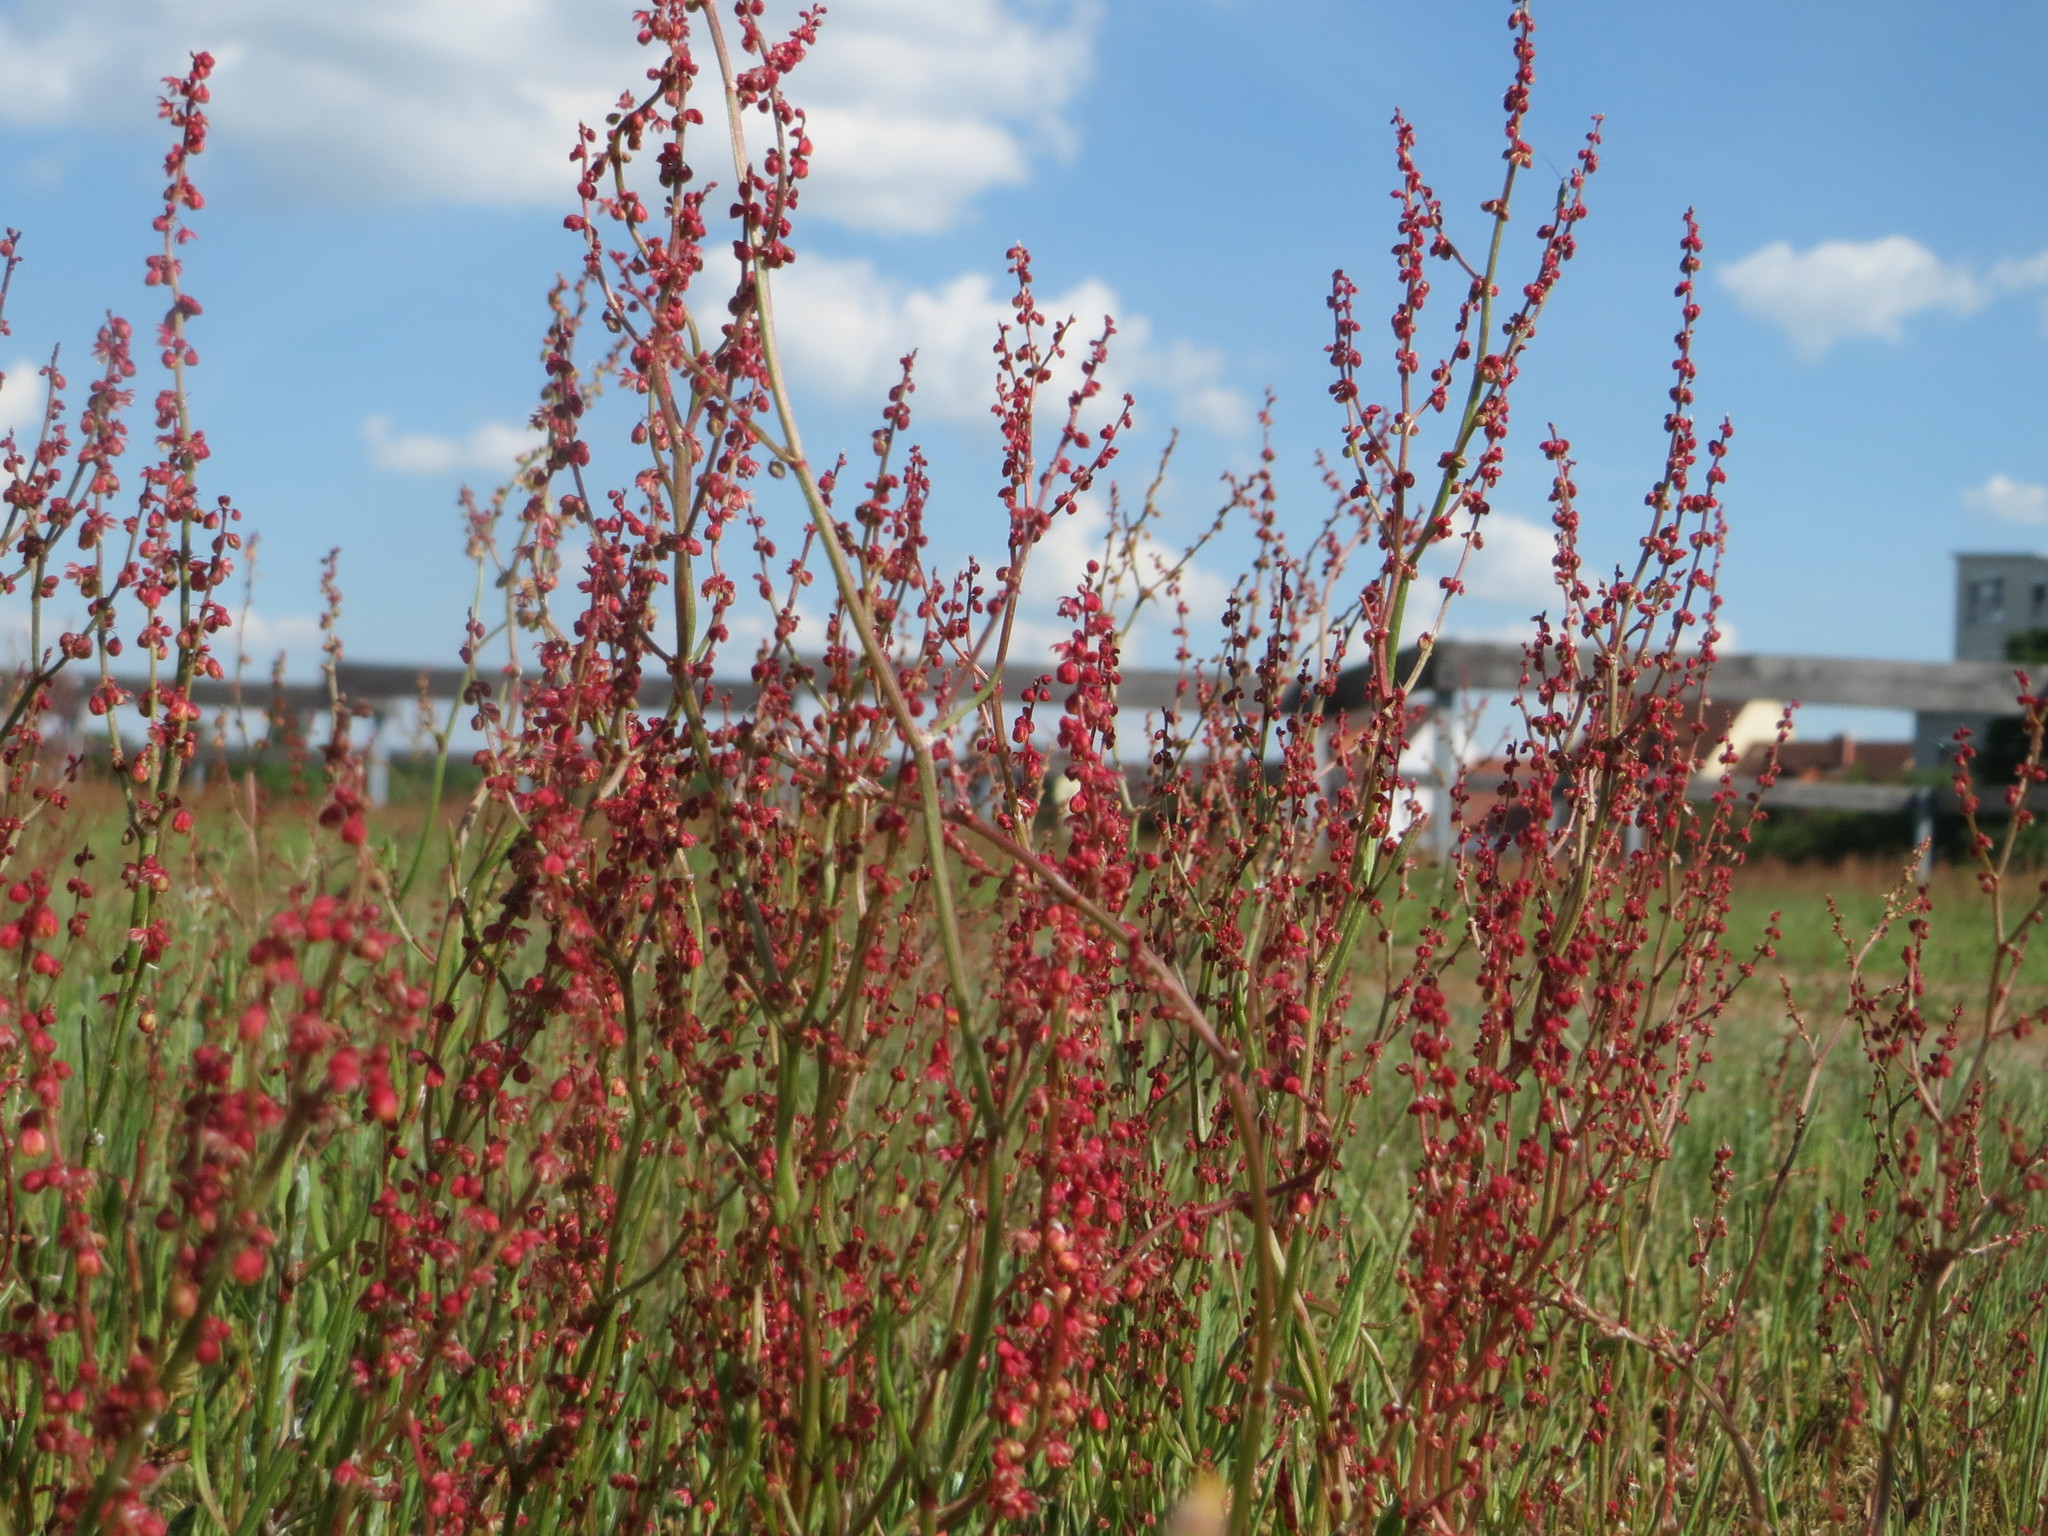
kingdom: Plantae
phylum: Tracheophyta
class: Magnoliopsida
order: Caryophyllales
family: Polygonaceae
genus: Rumex
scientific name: Rumex acetosella
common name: Common sheep sorrel
